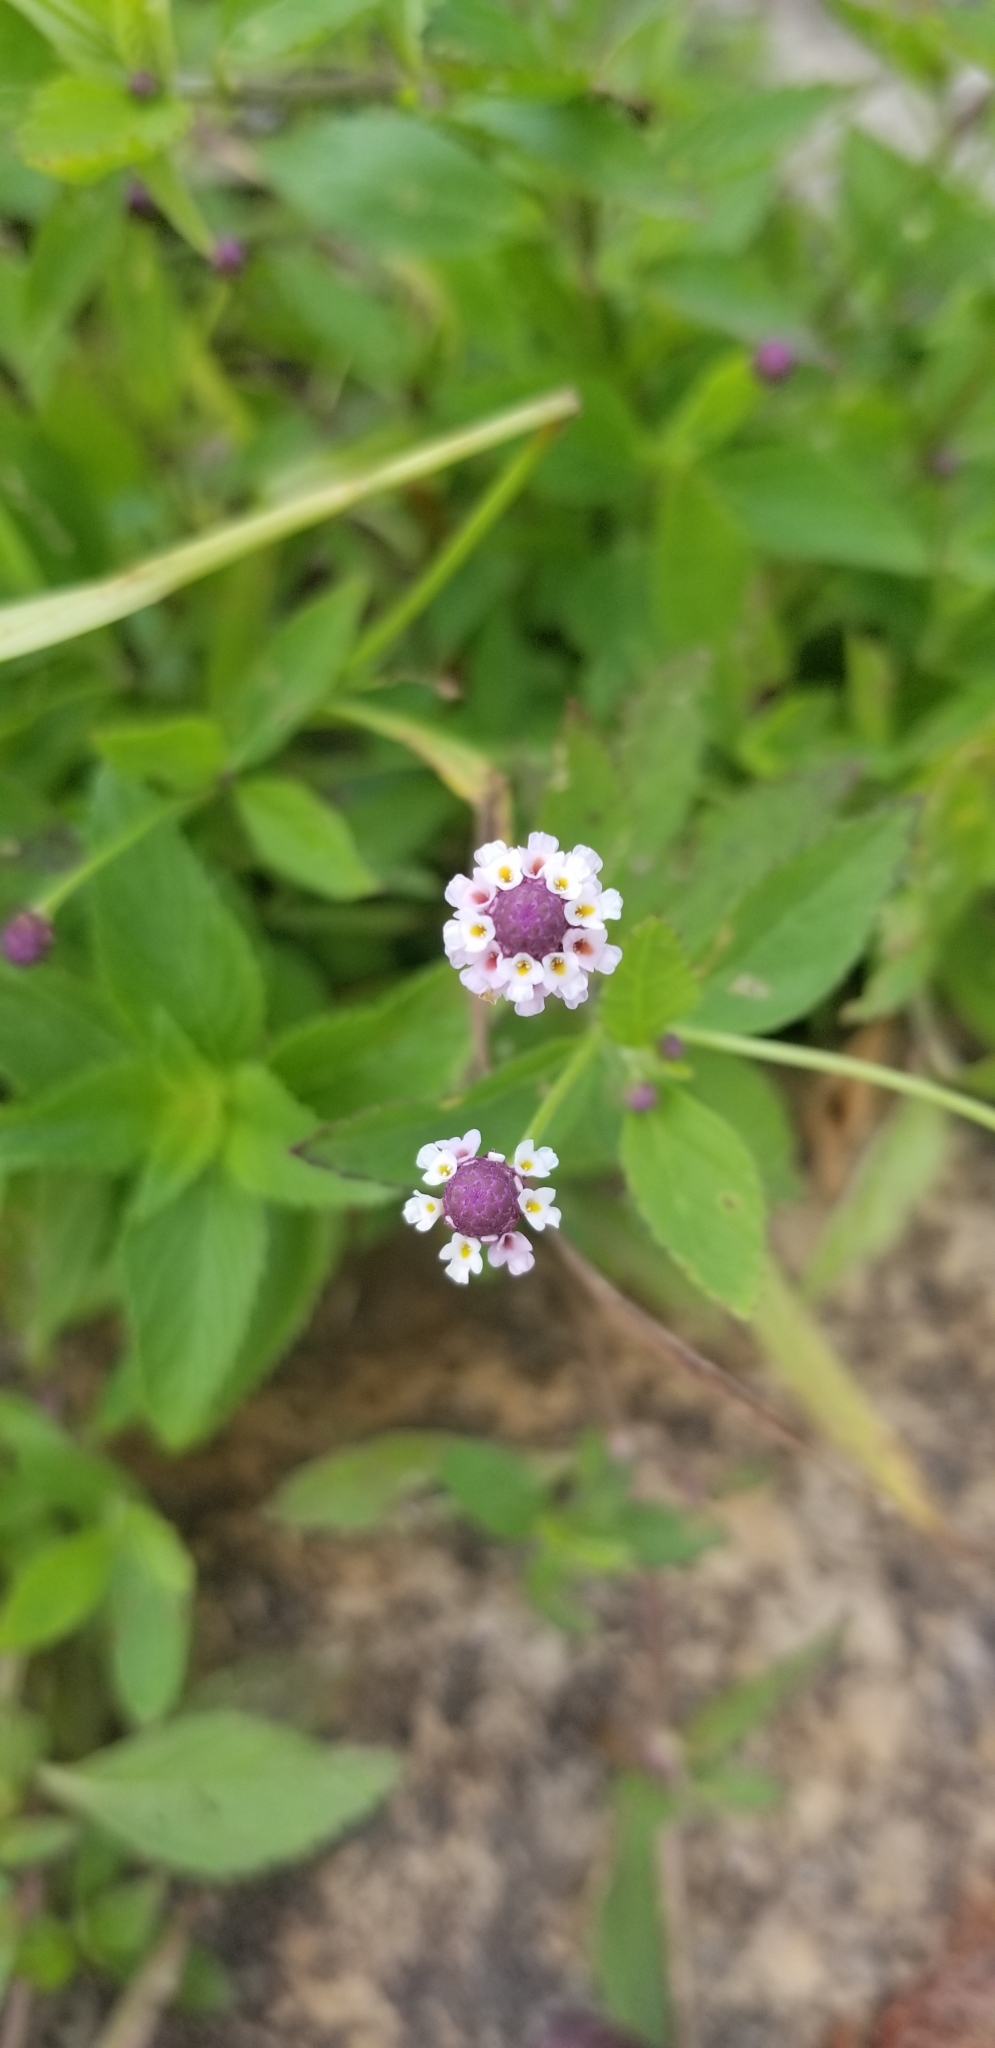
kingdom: Plantae
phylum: Tracheophyta
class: Magnoliopsida
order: Lamiales
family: Verbenaceae
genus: Phyla
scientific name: Phyla lanceolata
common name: Northern fogfruit
